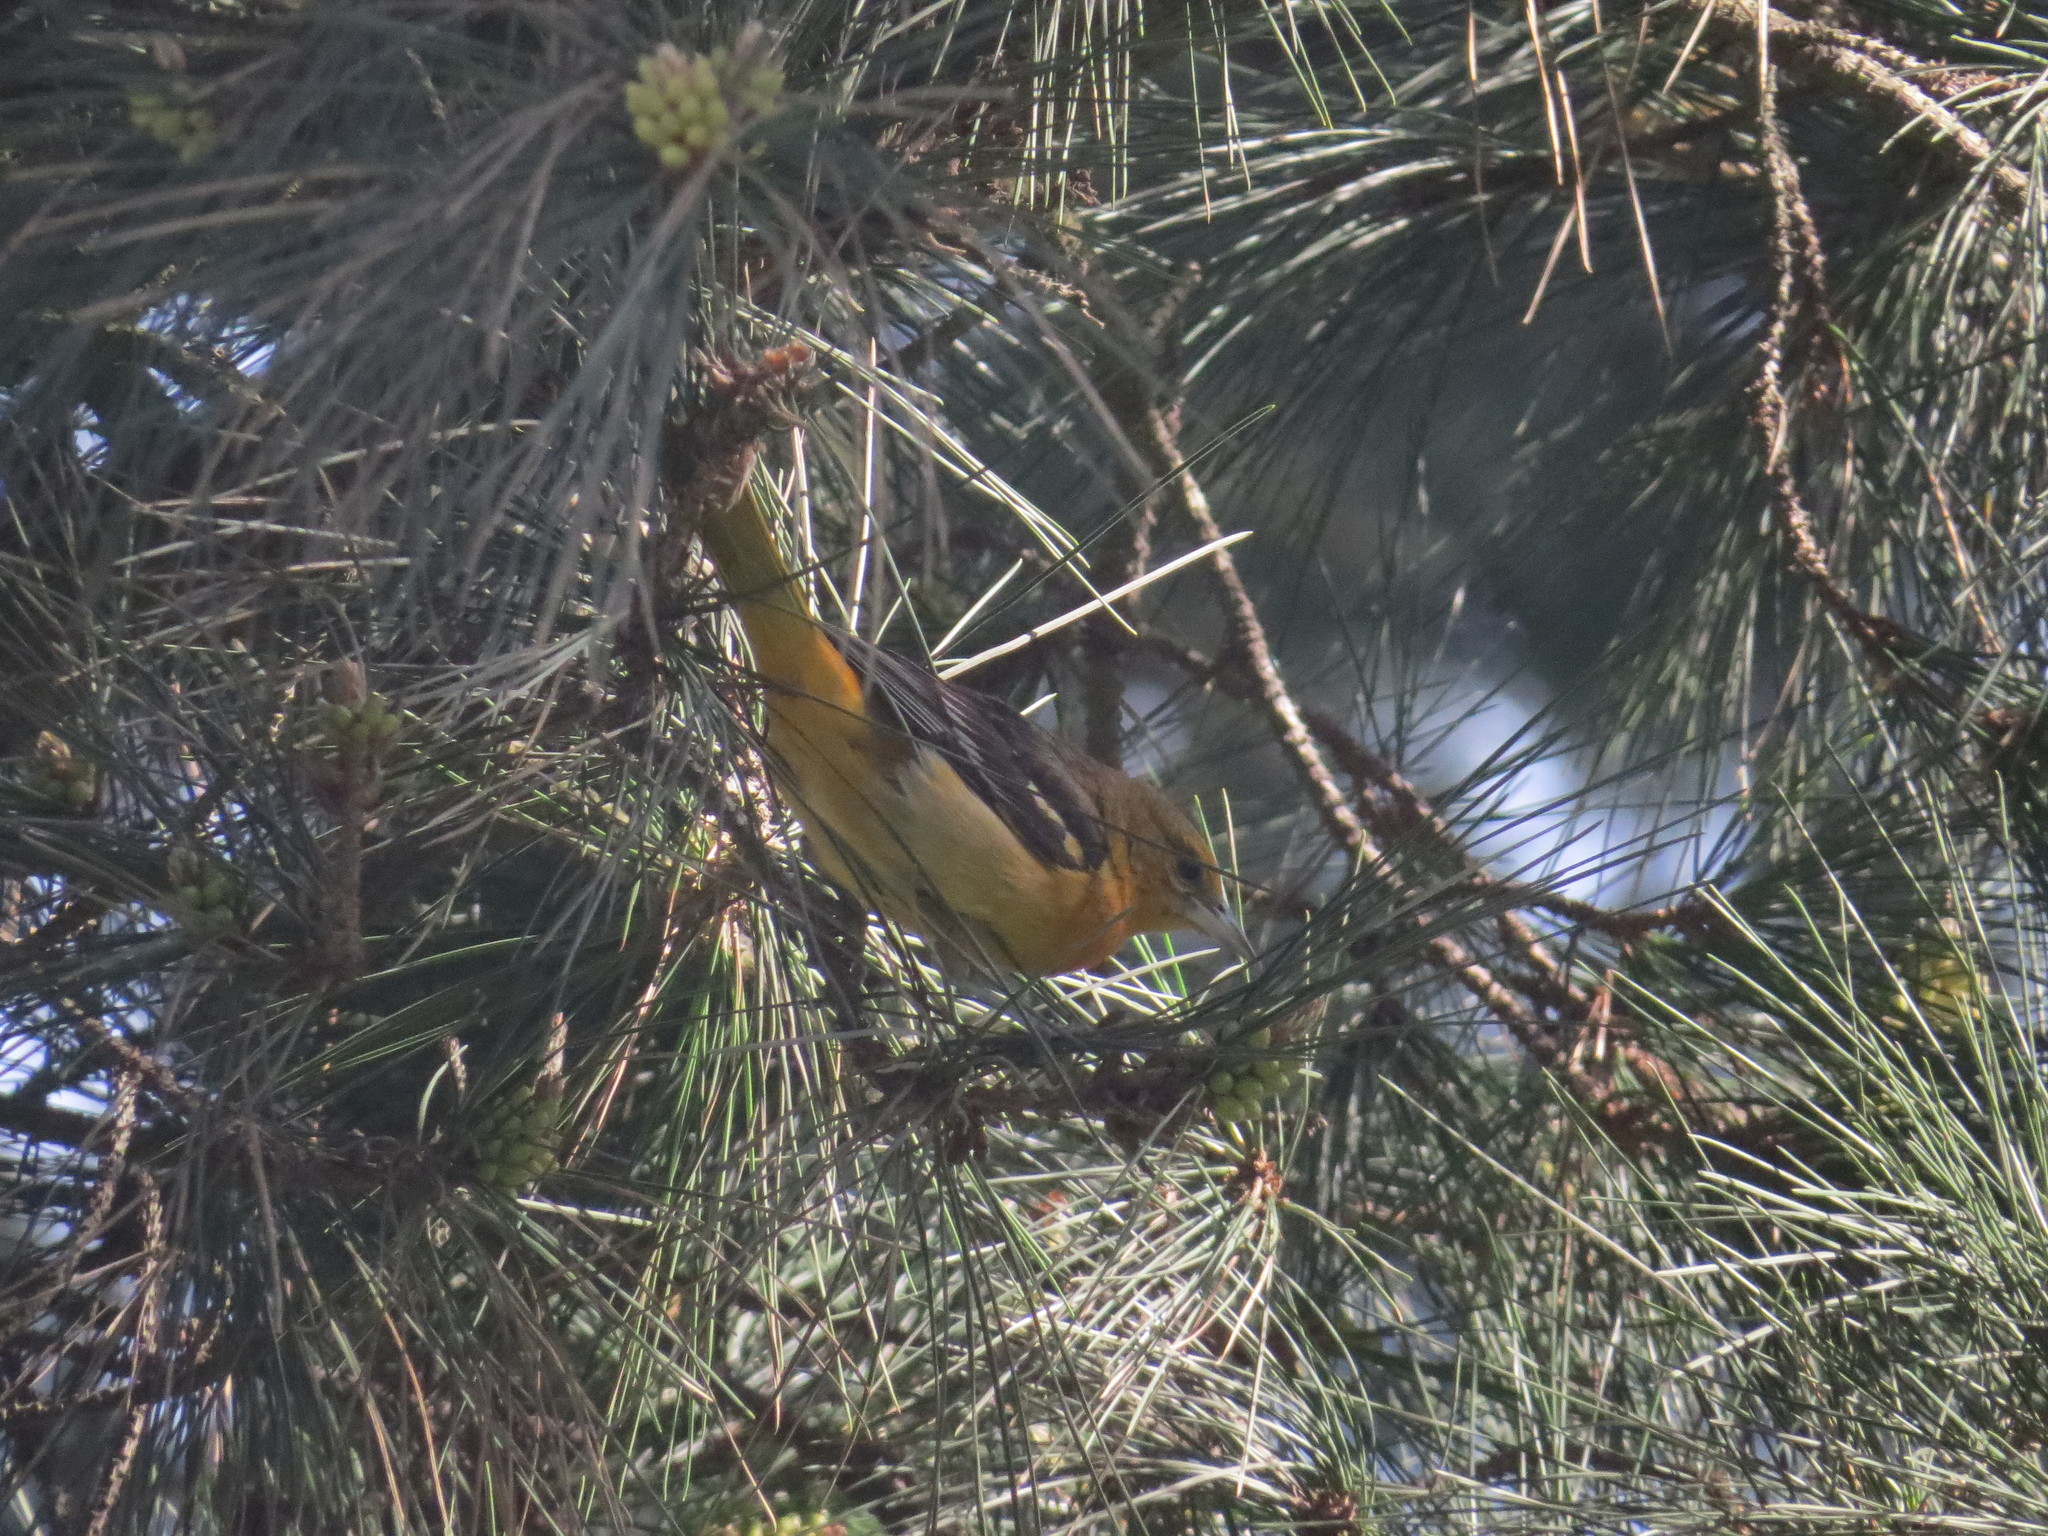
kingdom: Animalia
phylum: Chordata
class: Aves
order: Passeriformes
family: Icteridae
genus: Icterus
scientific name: Icterus galbula
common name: Baltimore oriole
